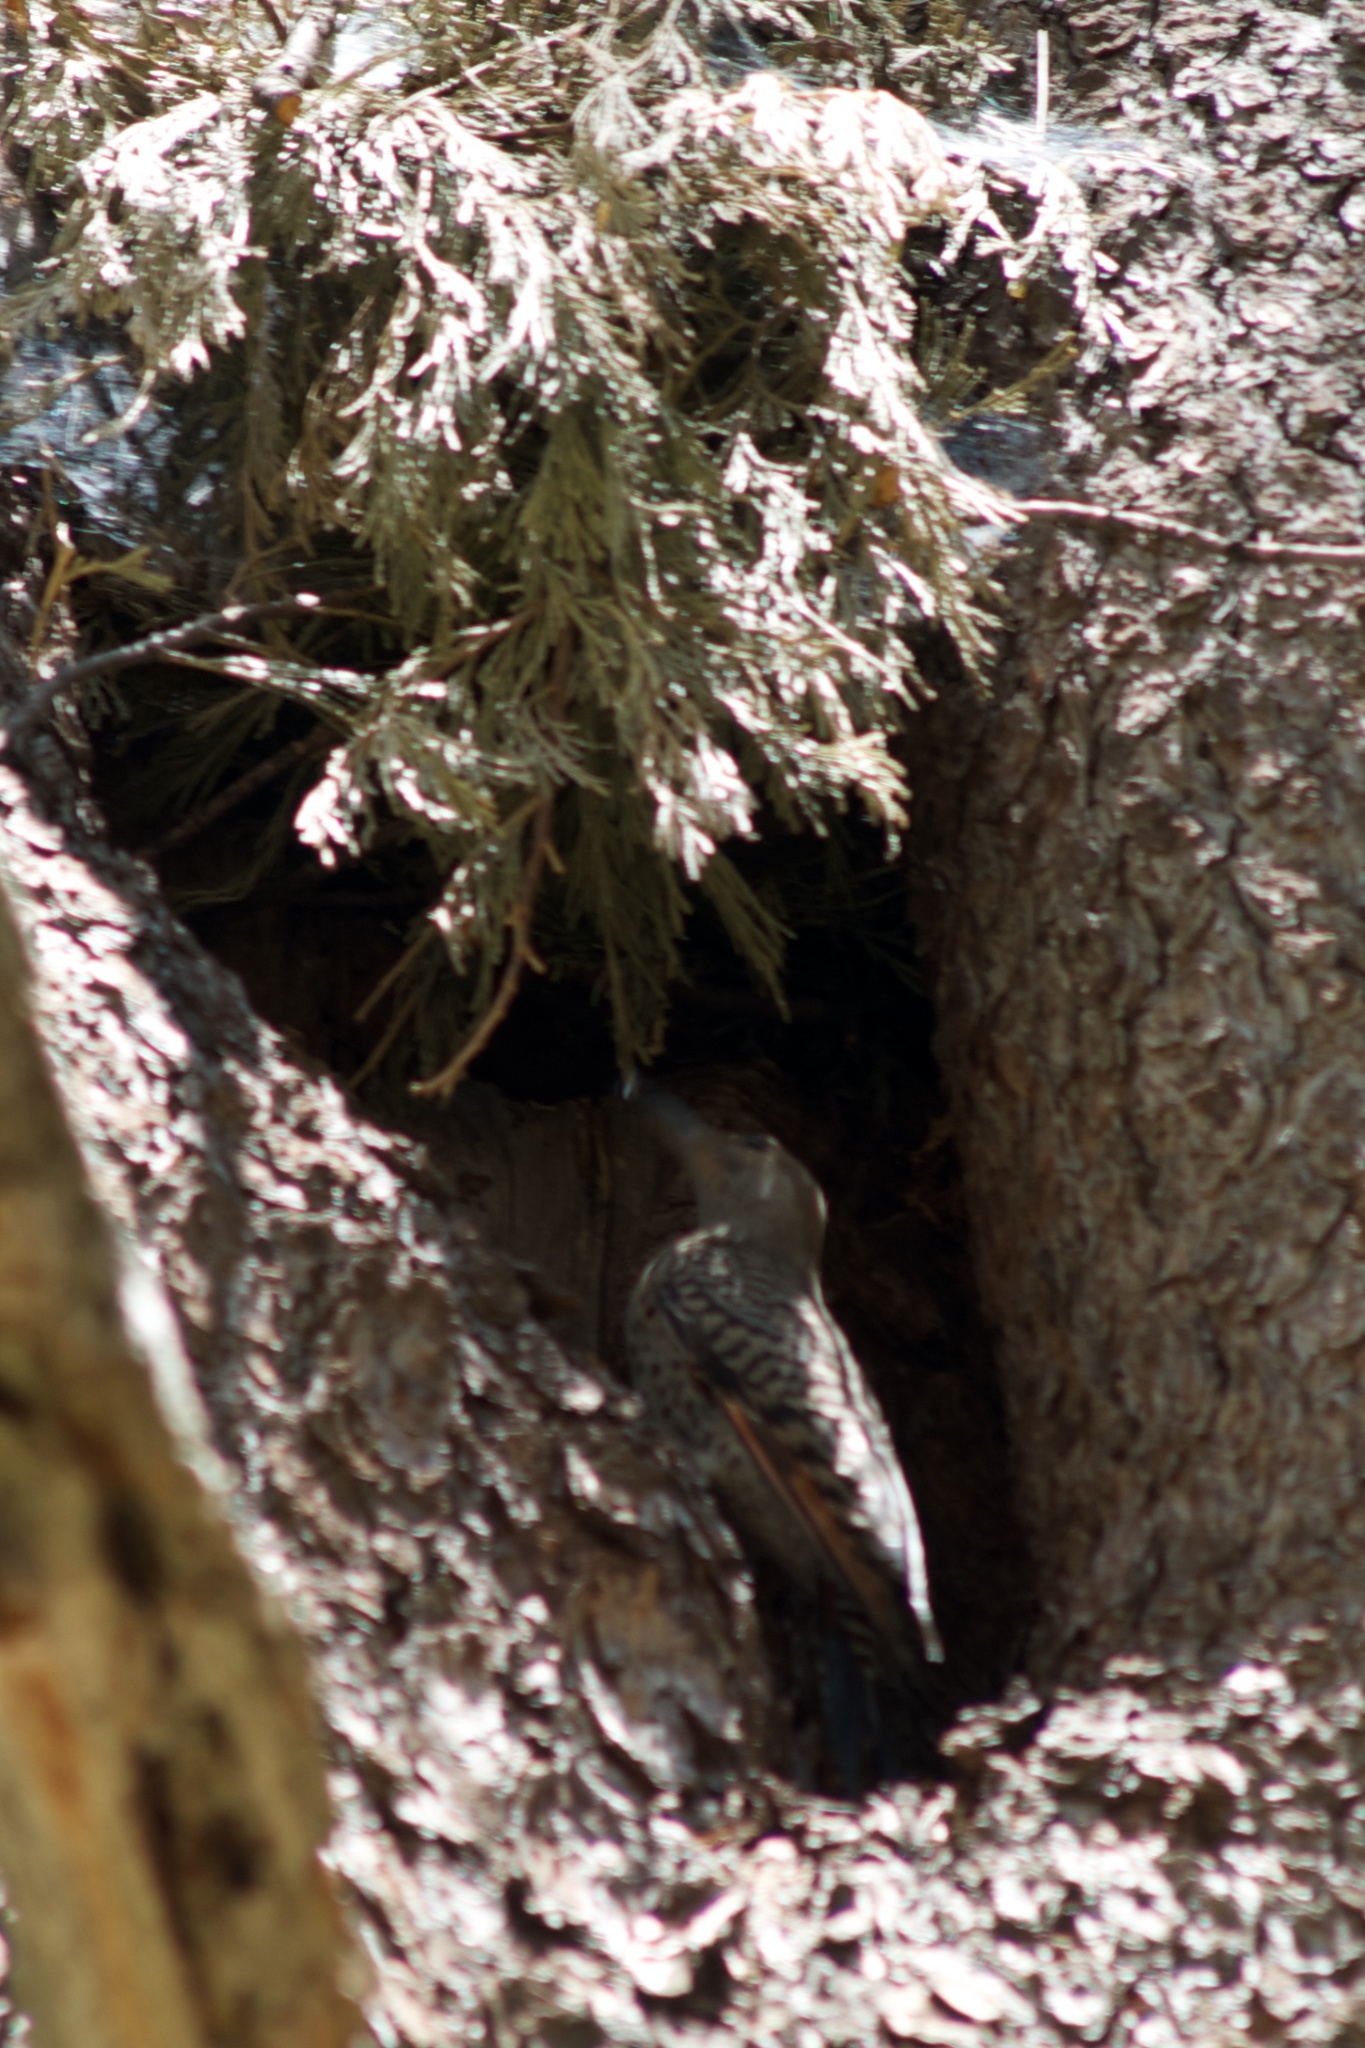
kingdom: Animalia
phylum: Chordata
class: Aves
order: Piciformes
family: Picidae
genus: Colaptes
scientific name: Colaptes auratus
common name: Northern flicker
